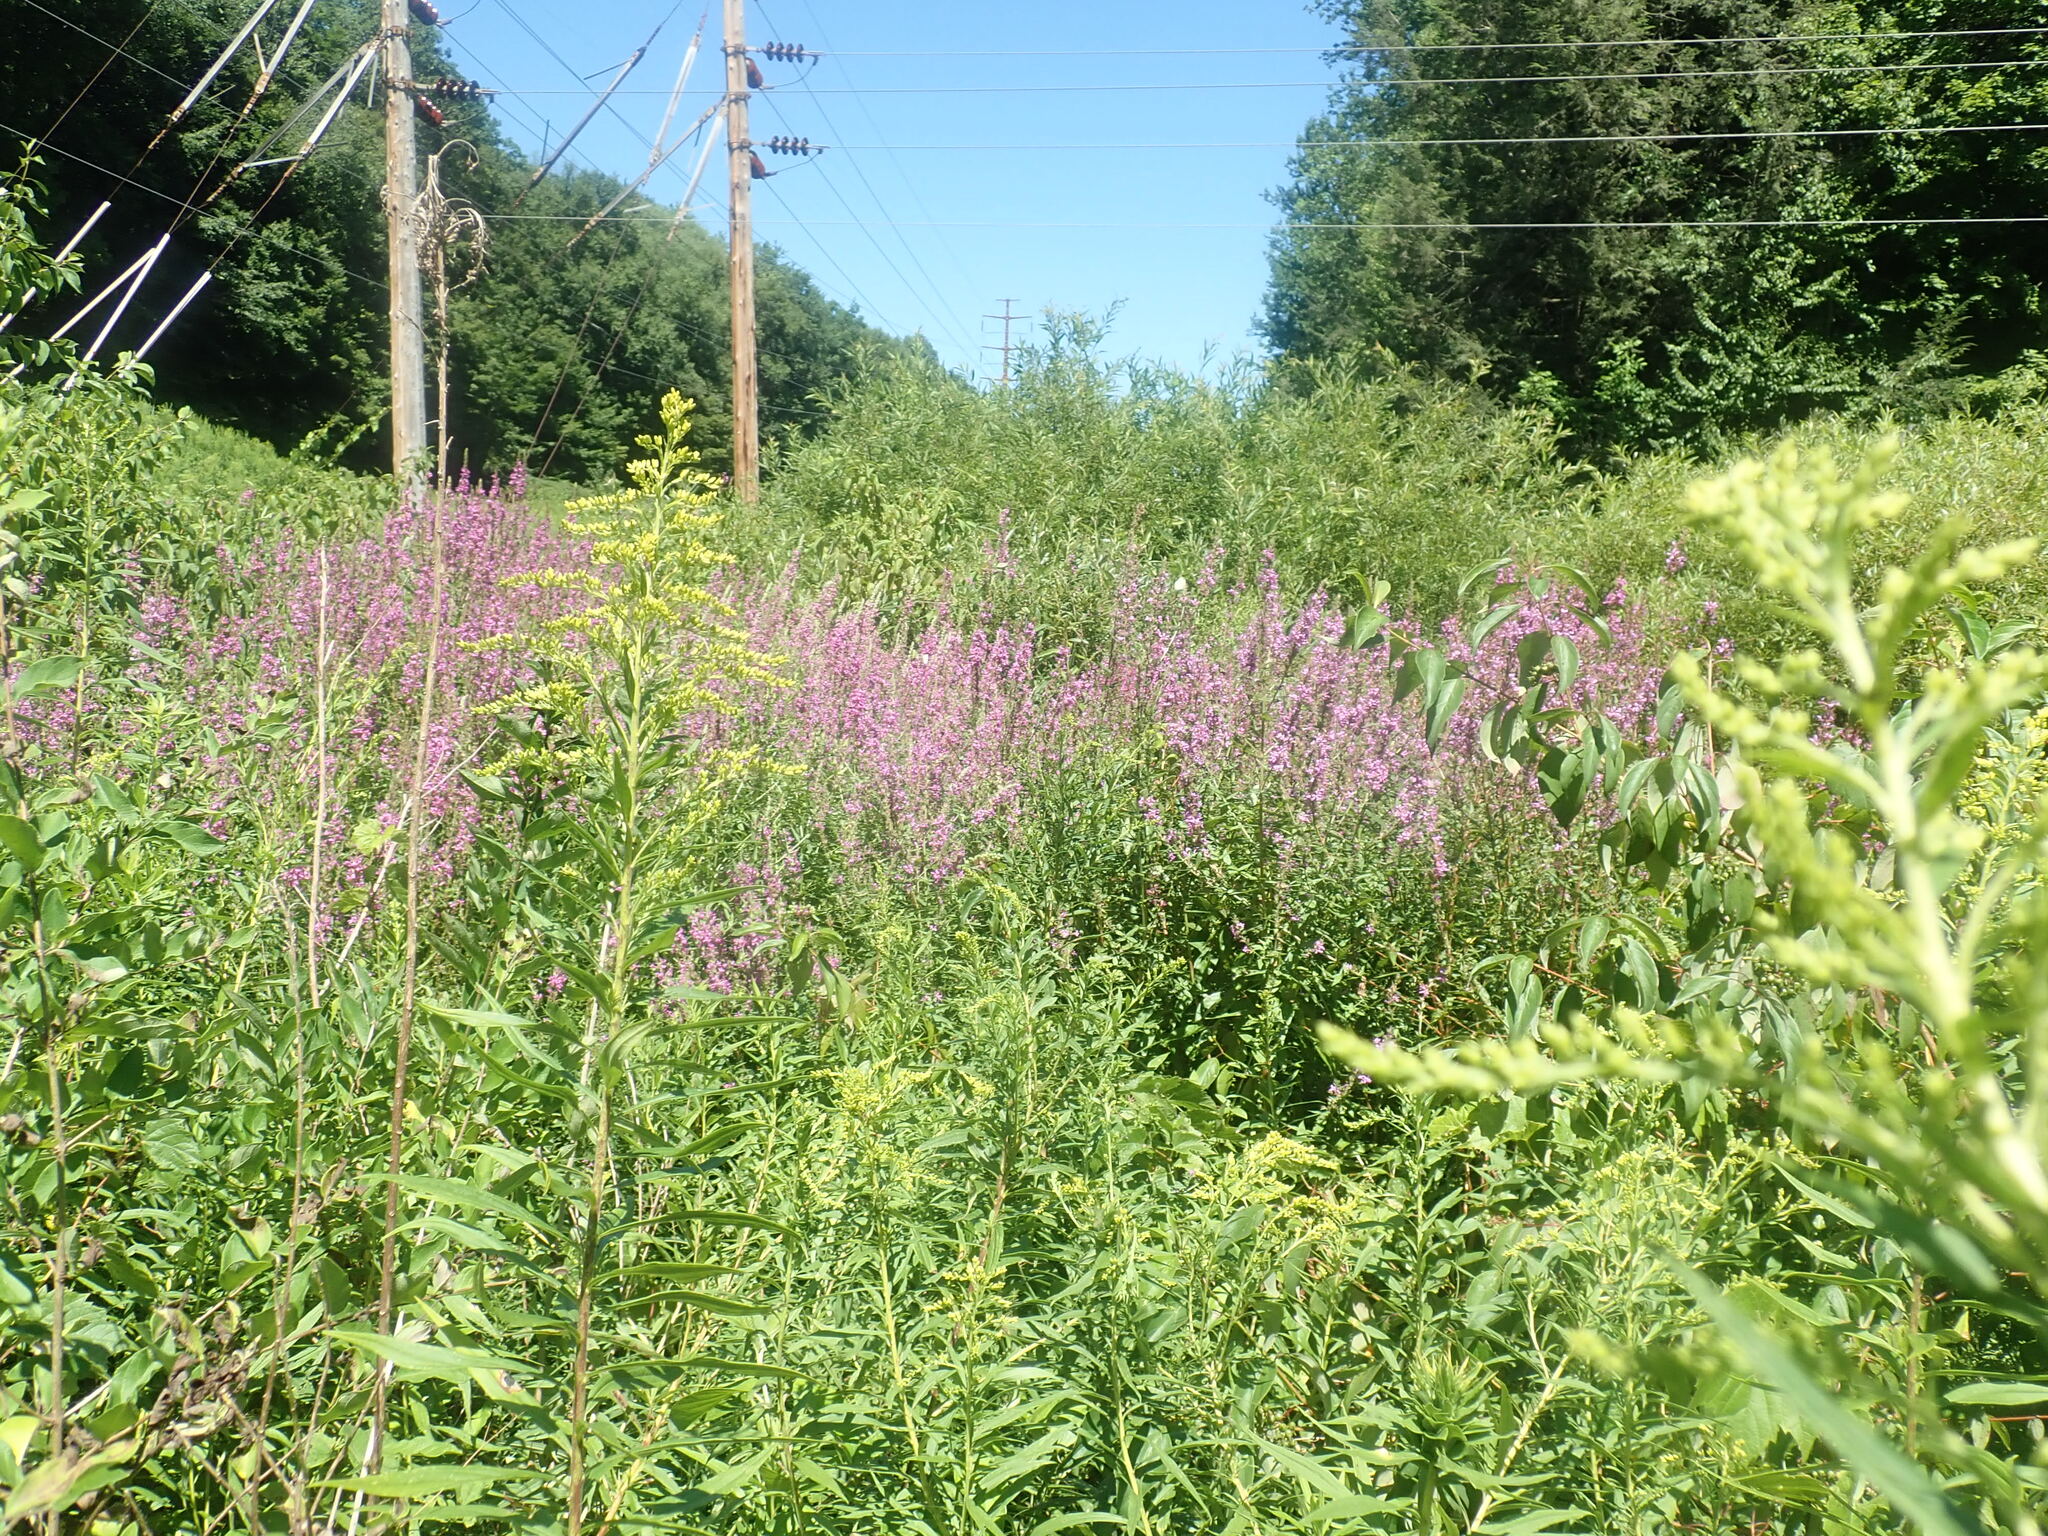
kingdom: Plantae
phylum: Tracheophyta
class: Magnoliopsida
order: Myrtales
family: Lythraceae
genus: Lythrum
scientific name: Lythrum salicaria
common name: Purple loosestrife
